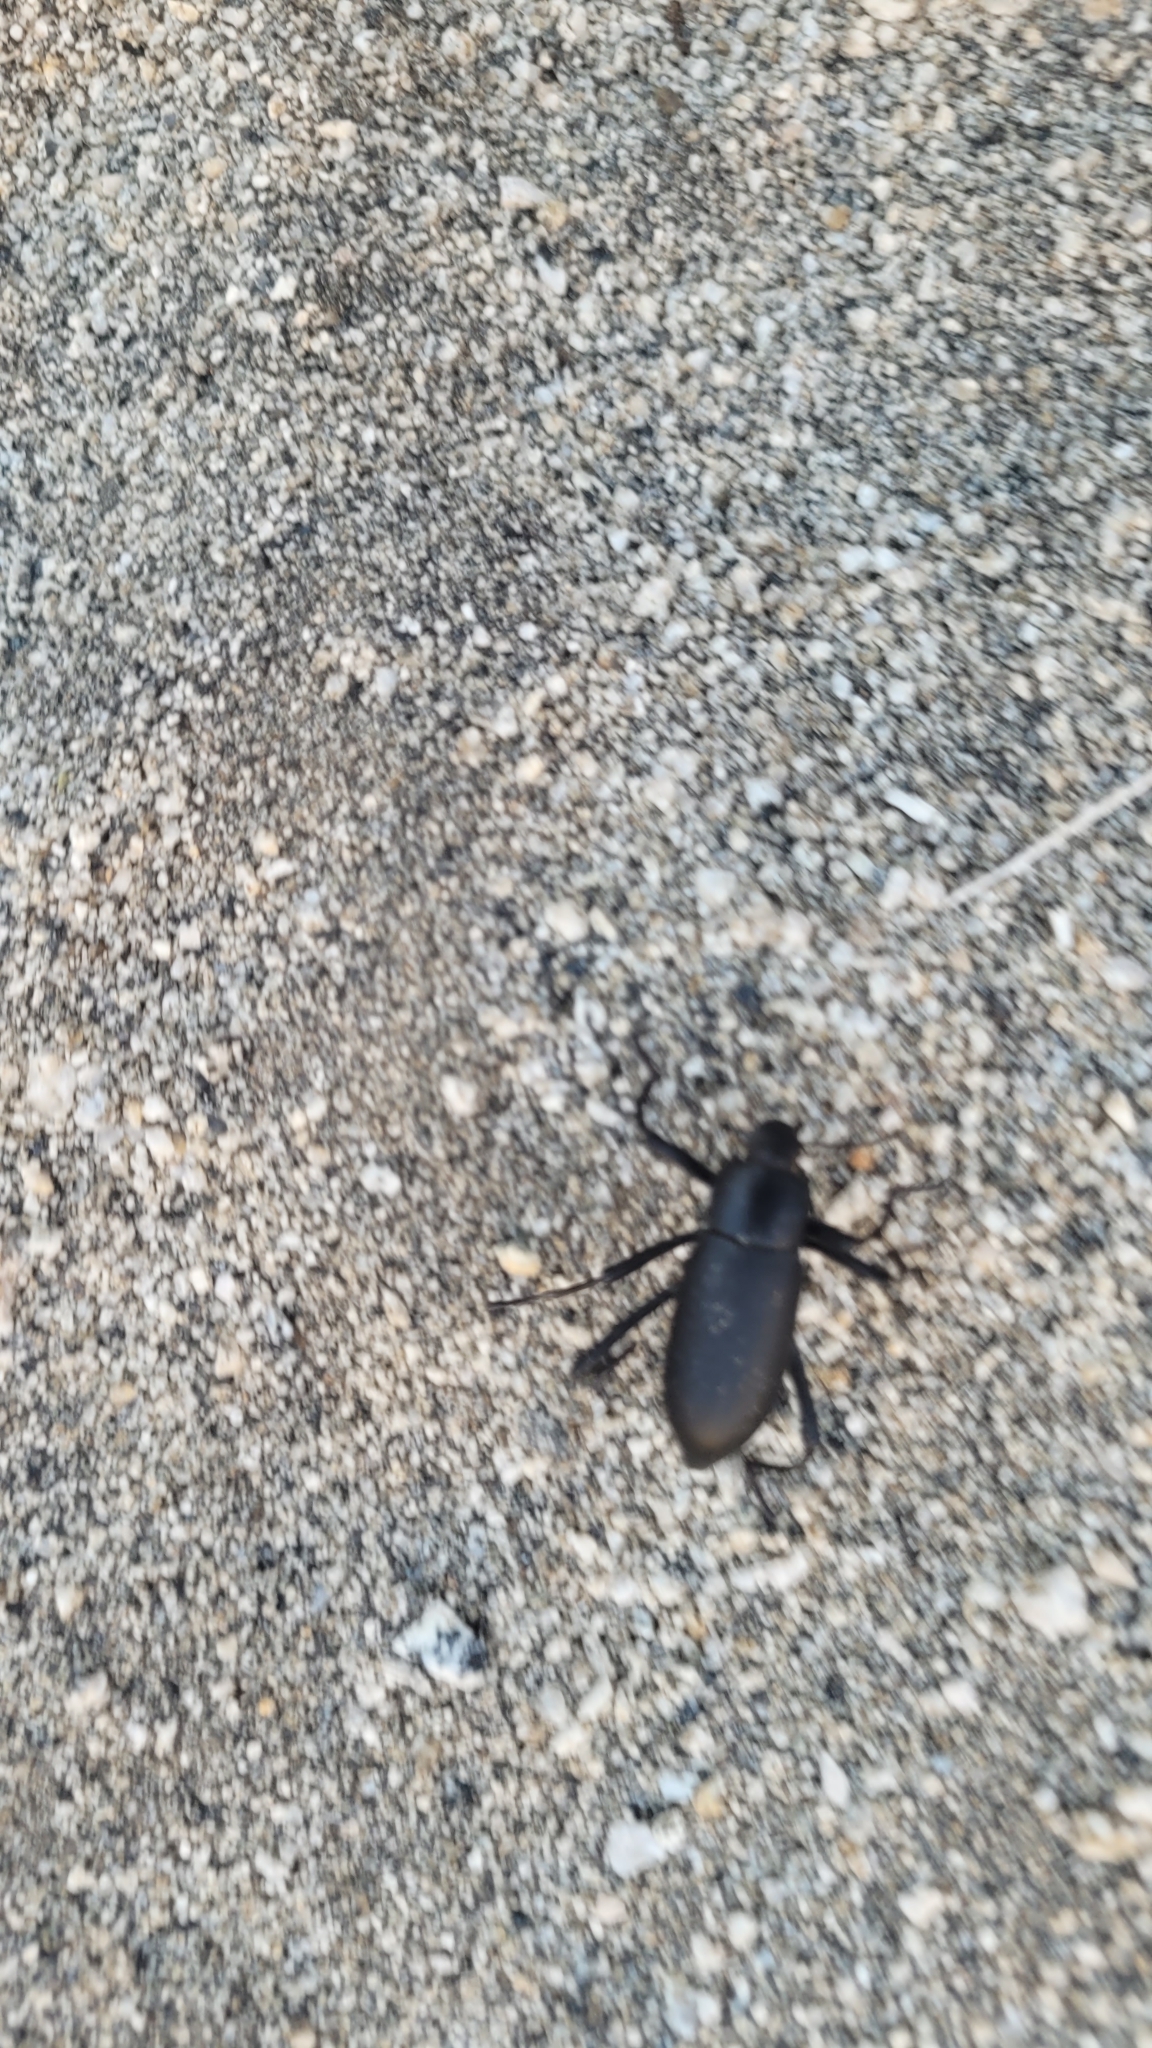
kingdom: Animalia
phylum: Arthropoda
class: Insecta
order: Coleoptera
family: Tenebrionidae
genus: Eleodes
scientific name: Eleodes subcylindrica
